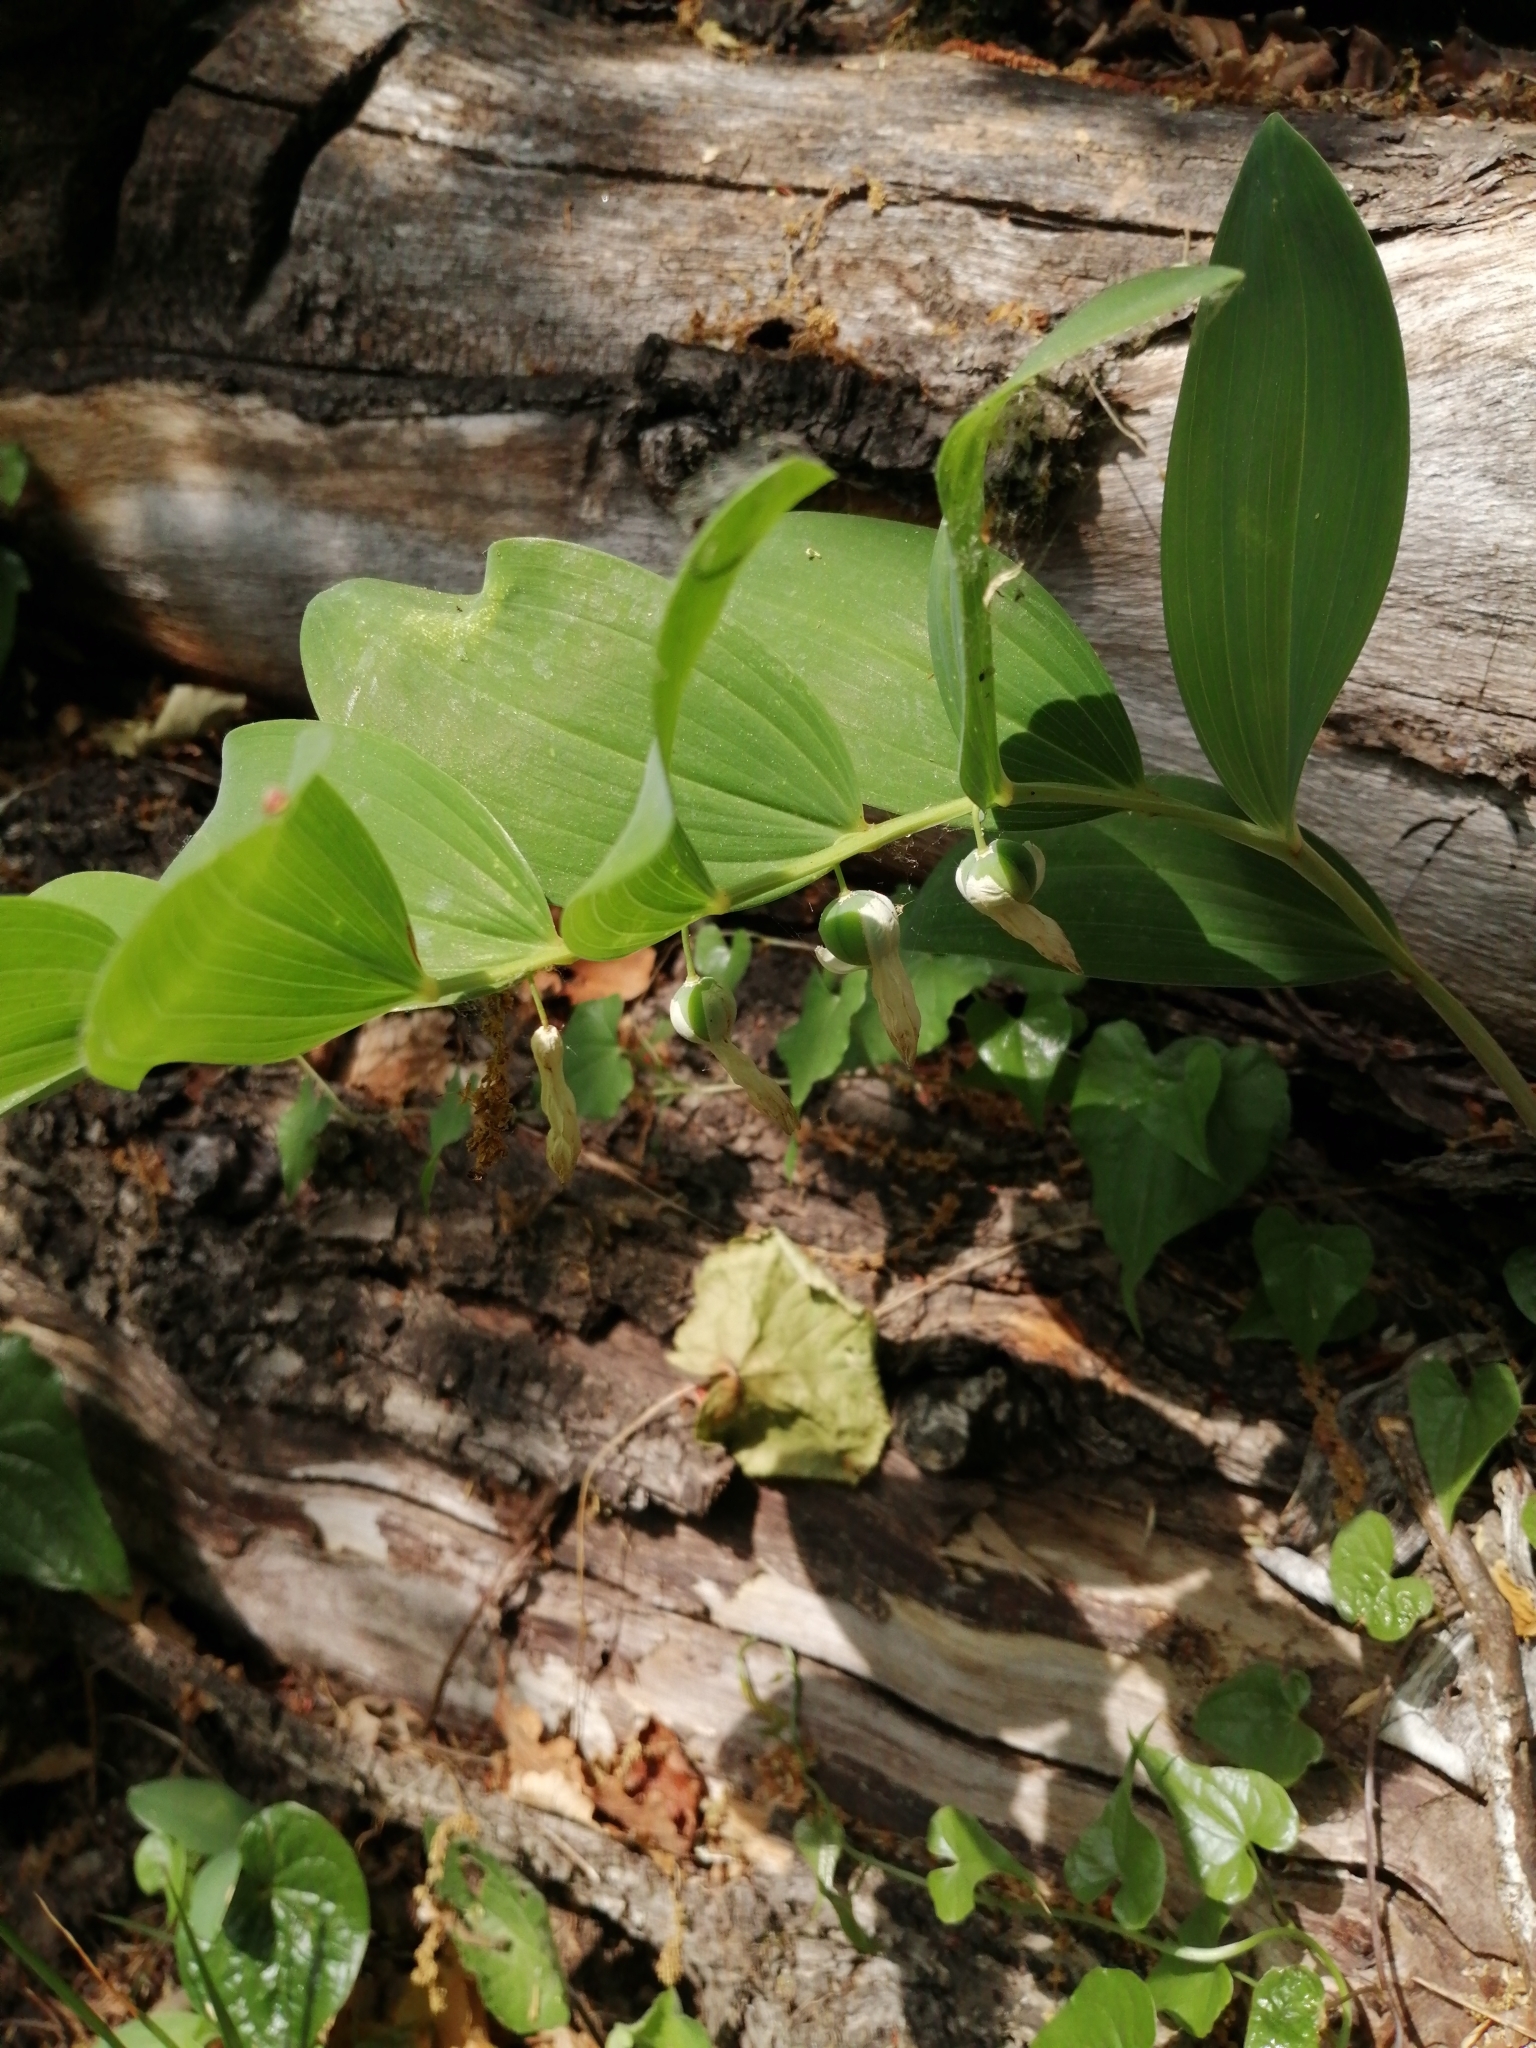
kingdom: Plantae
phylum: Tracheophyta
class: Liliopsida
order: Asparagales
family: Asparagaceae
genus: Polygonatum
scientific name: Polygonatum multiflorum
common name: Solomon's-seal
